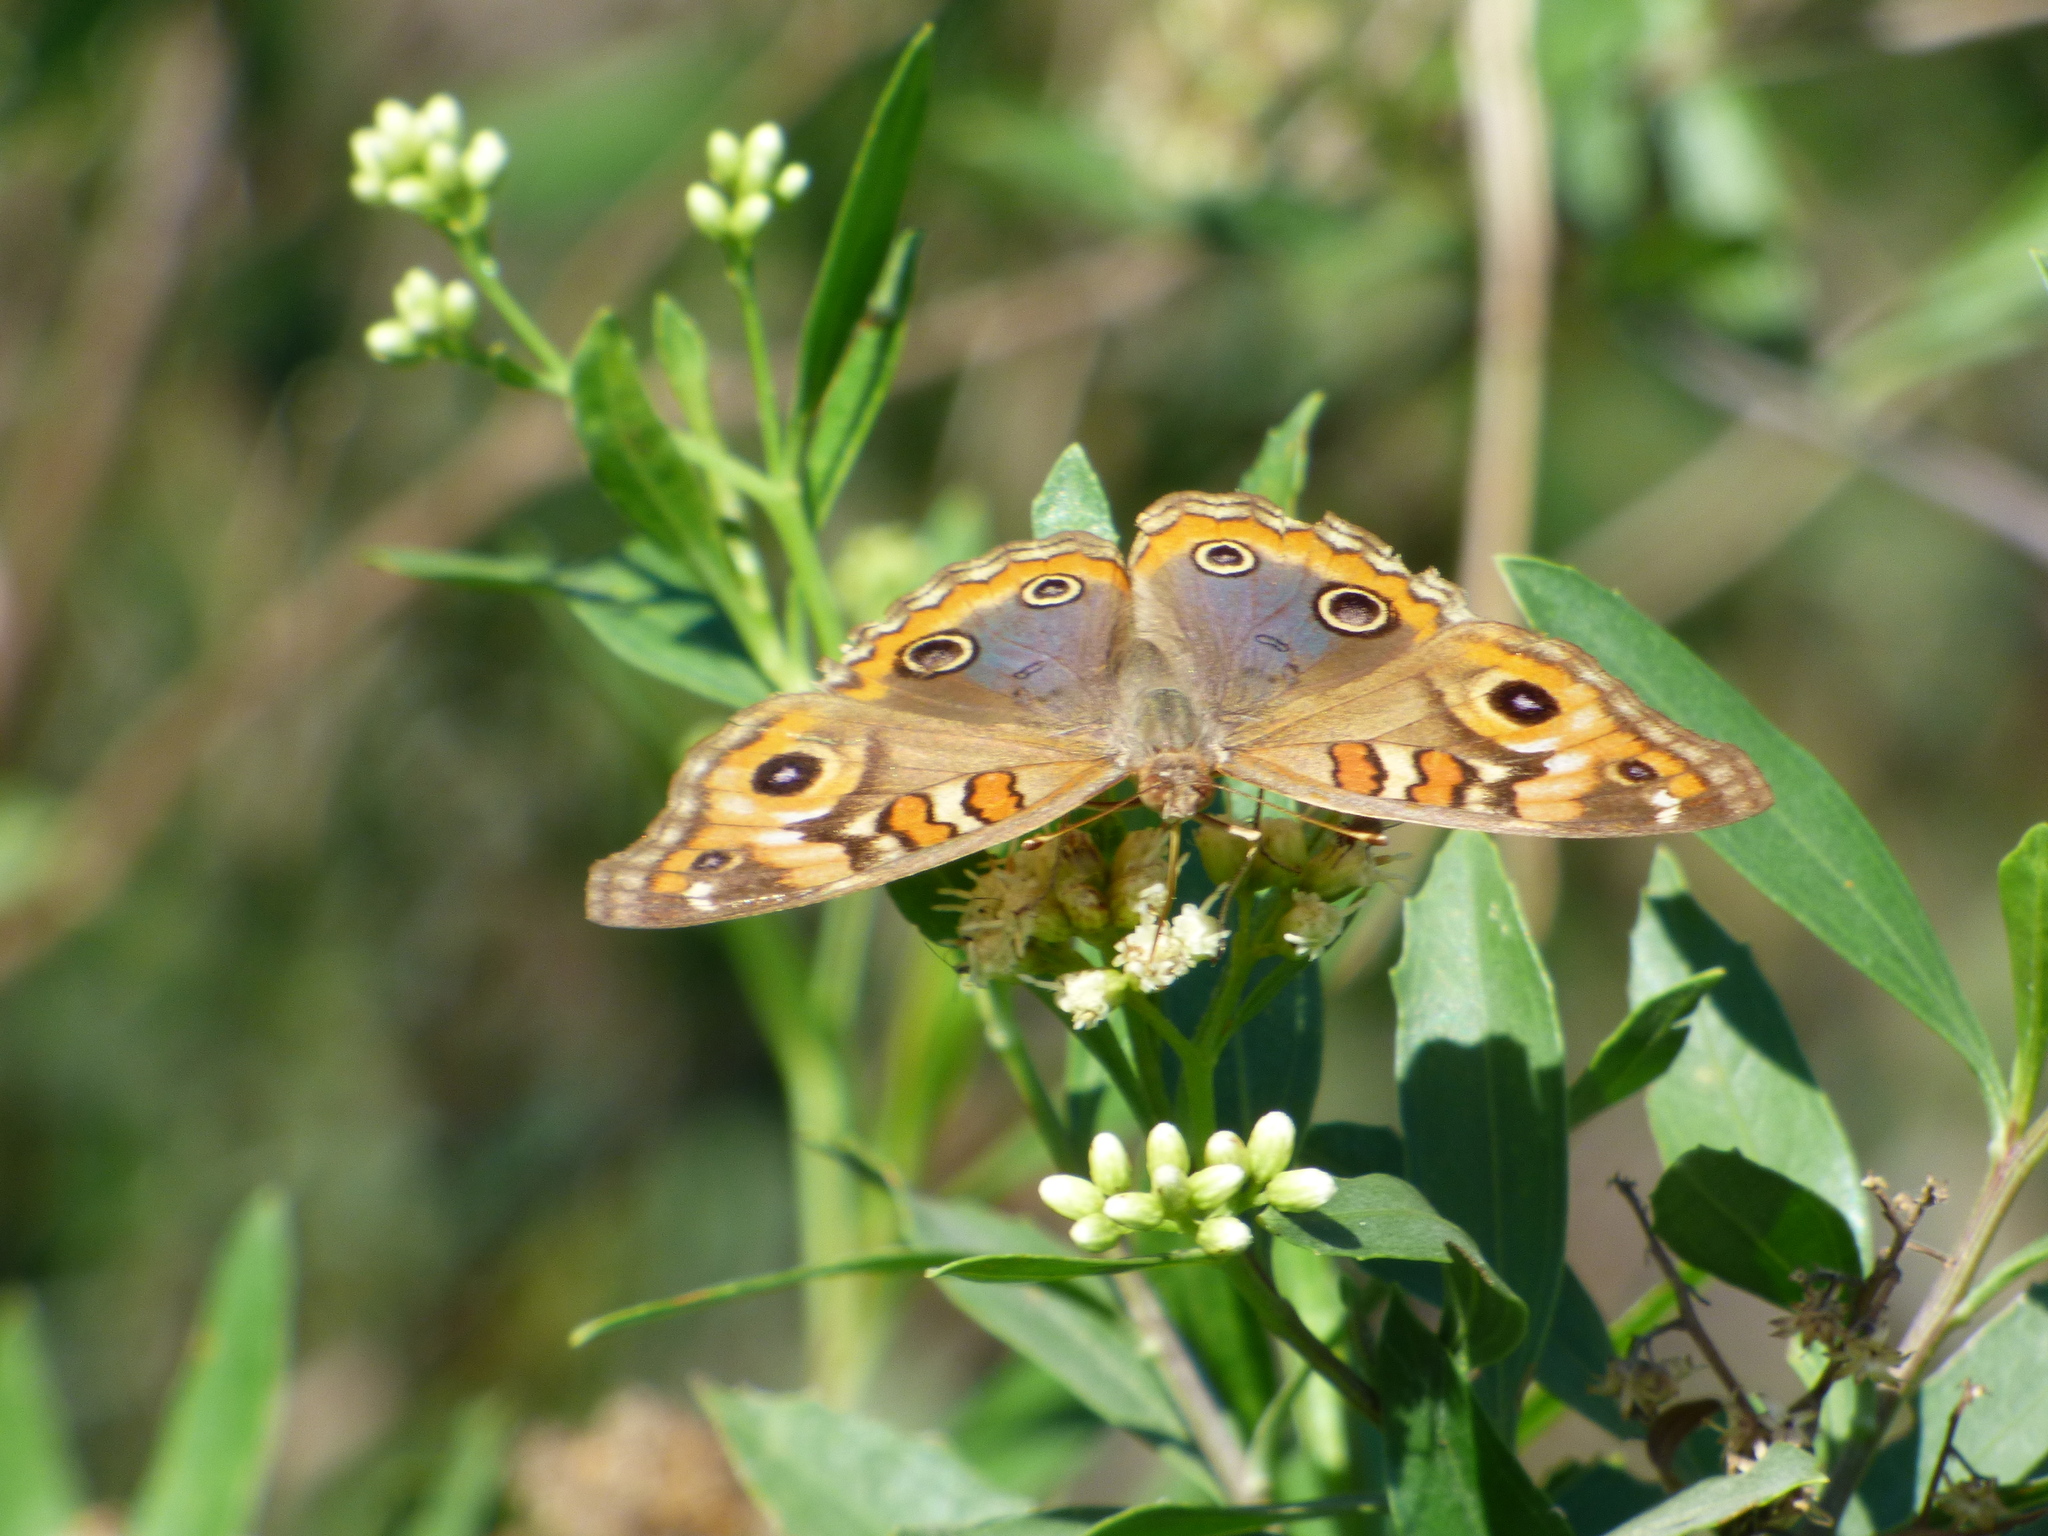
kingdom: Animalia
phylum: Arthropoda
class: Insecta
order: Lepidoptera
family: Nymphalidae
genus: Junonia
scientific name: Junonia lavinia
